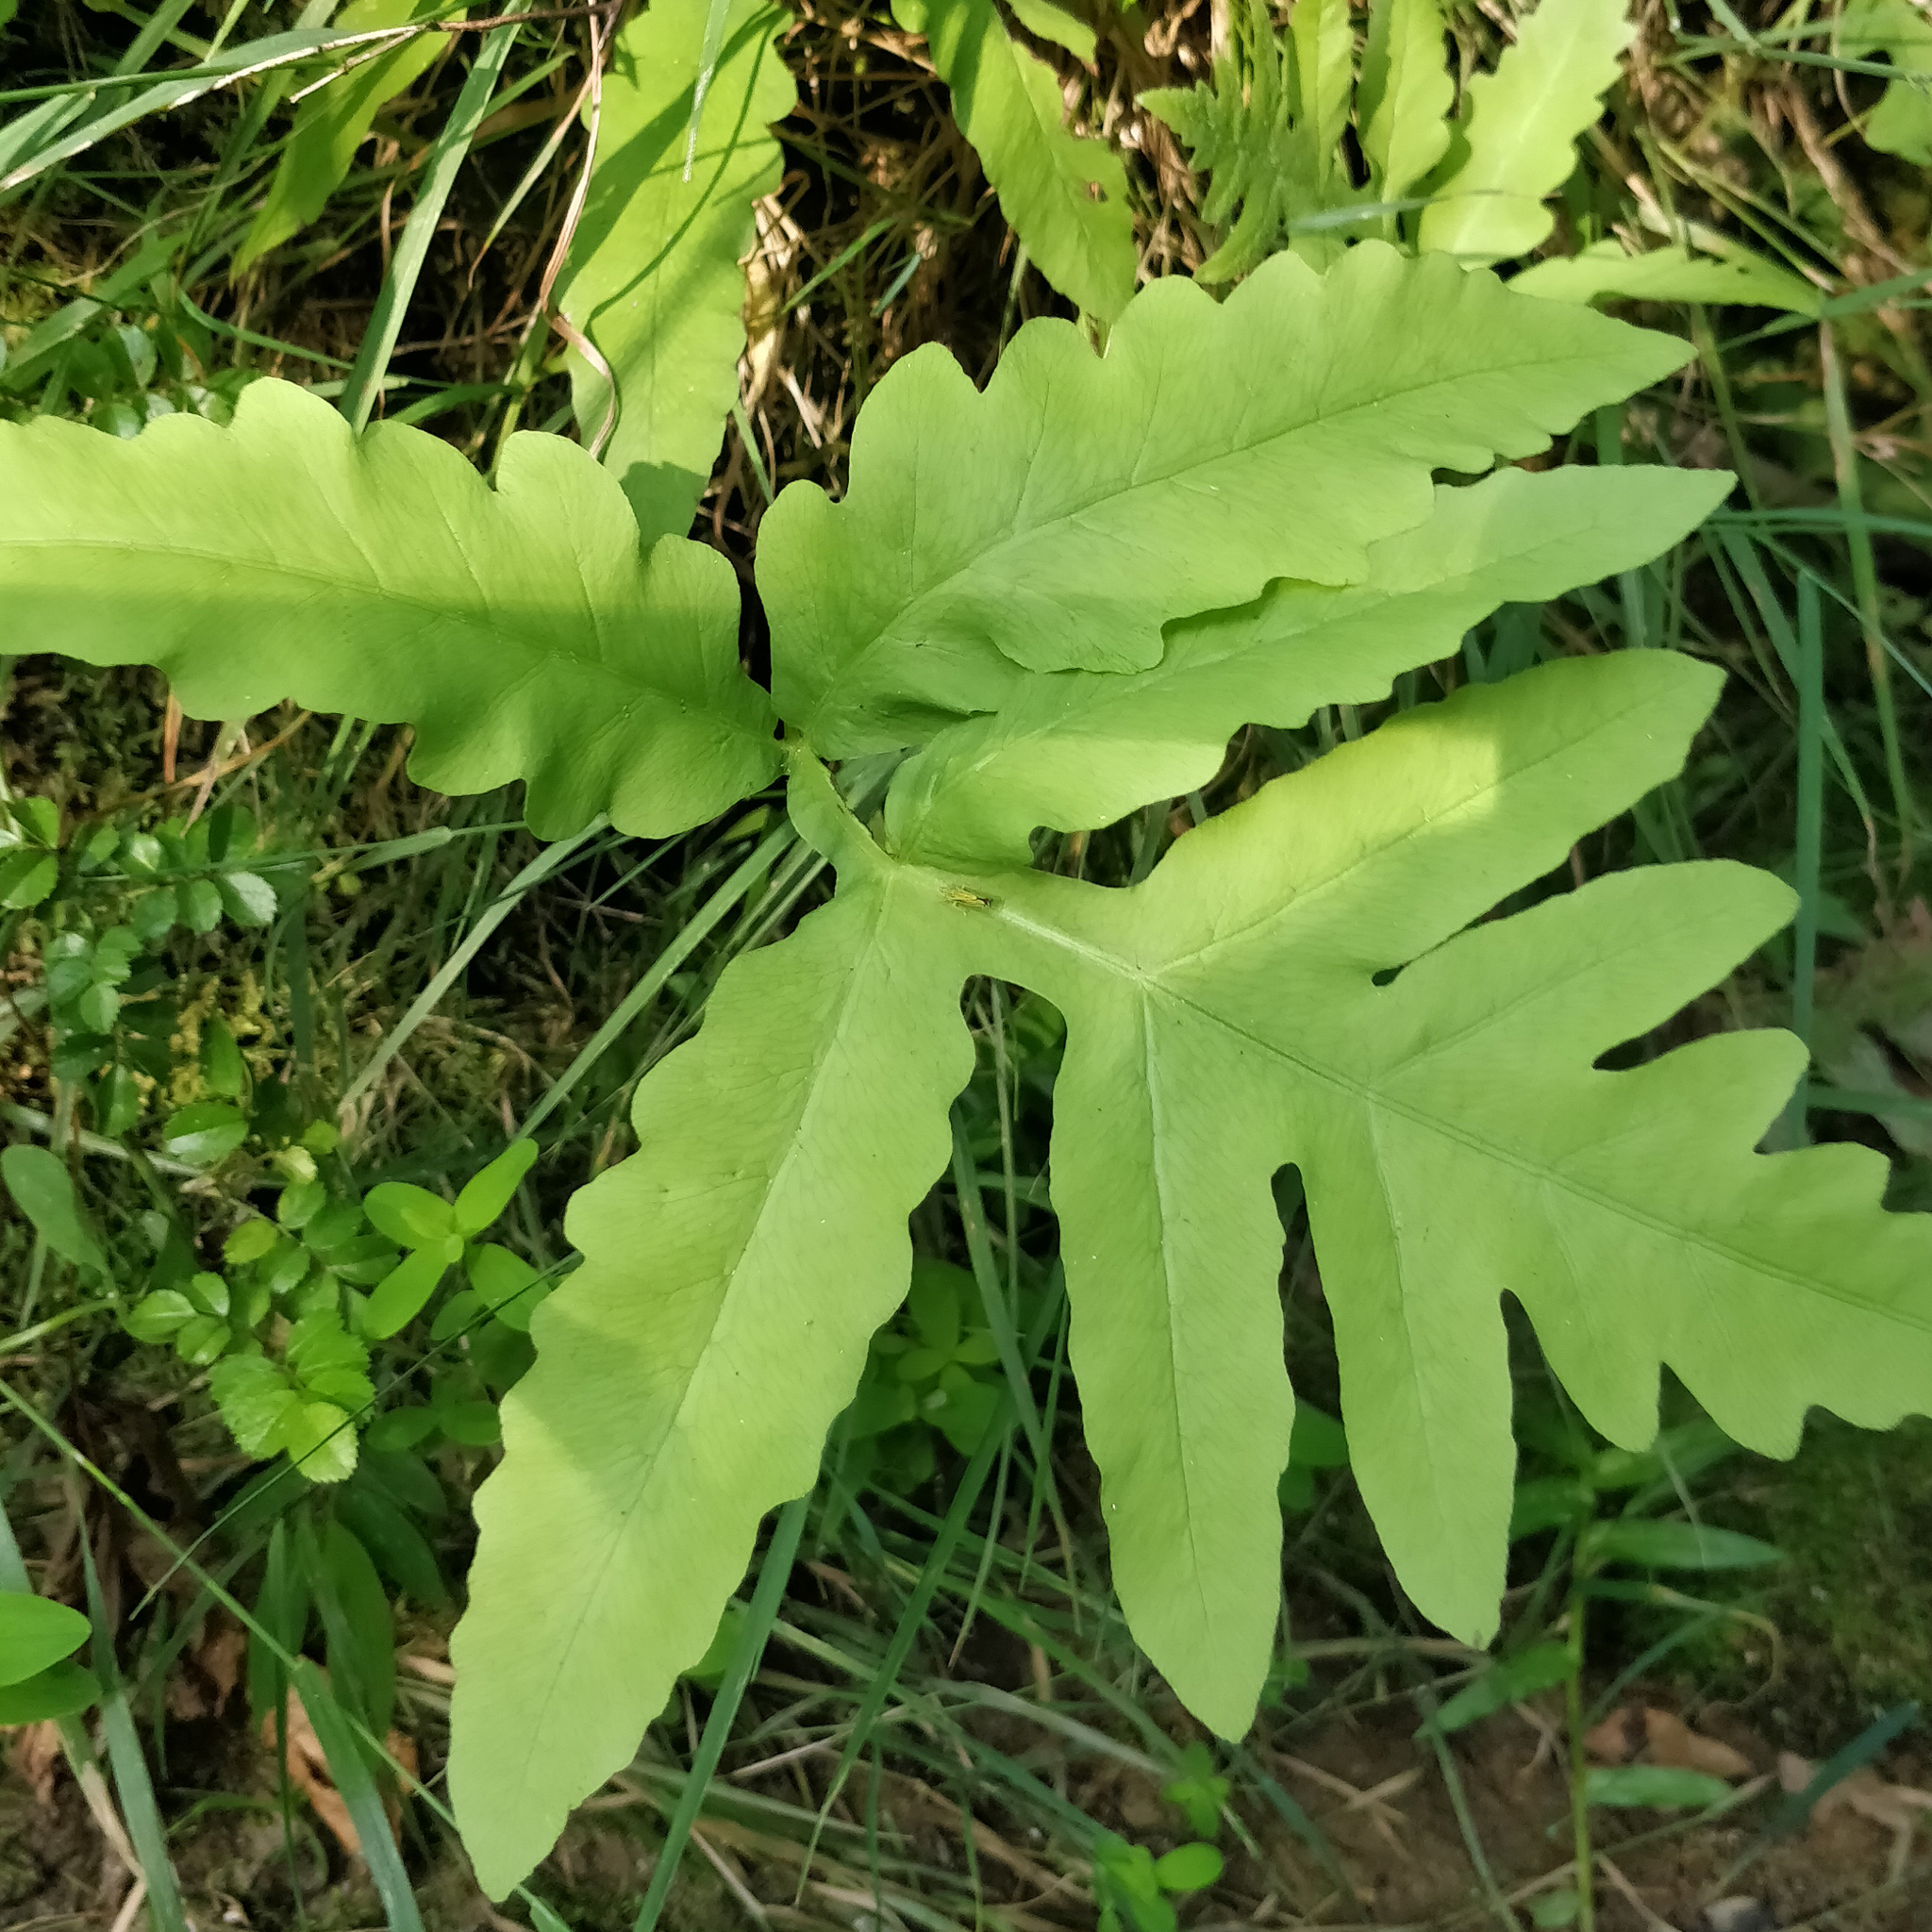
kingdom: Plantae
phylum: Tracheophyta
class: Polypodiopsida
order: Polypodiales
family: Onocleaceae
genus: Onoclea
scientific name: Onoclea sensibilis
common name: Sensitive fern
